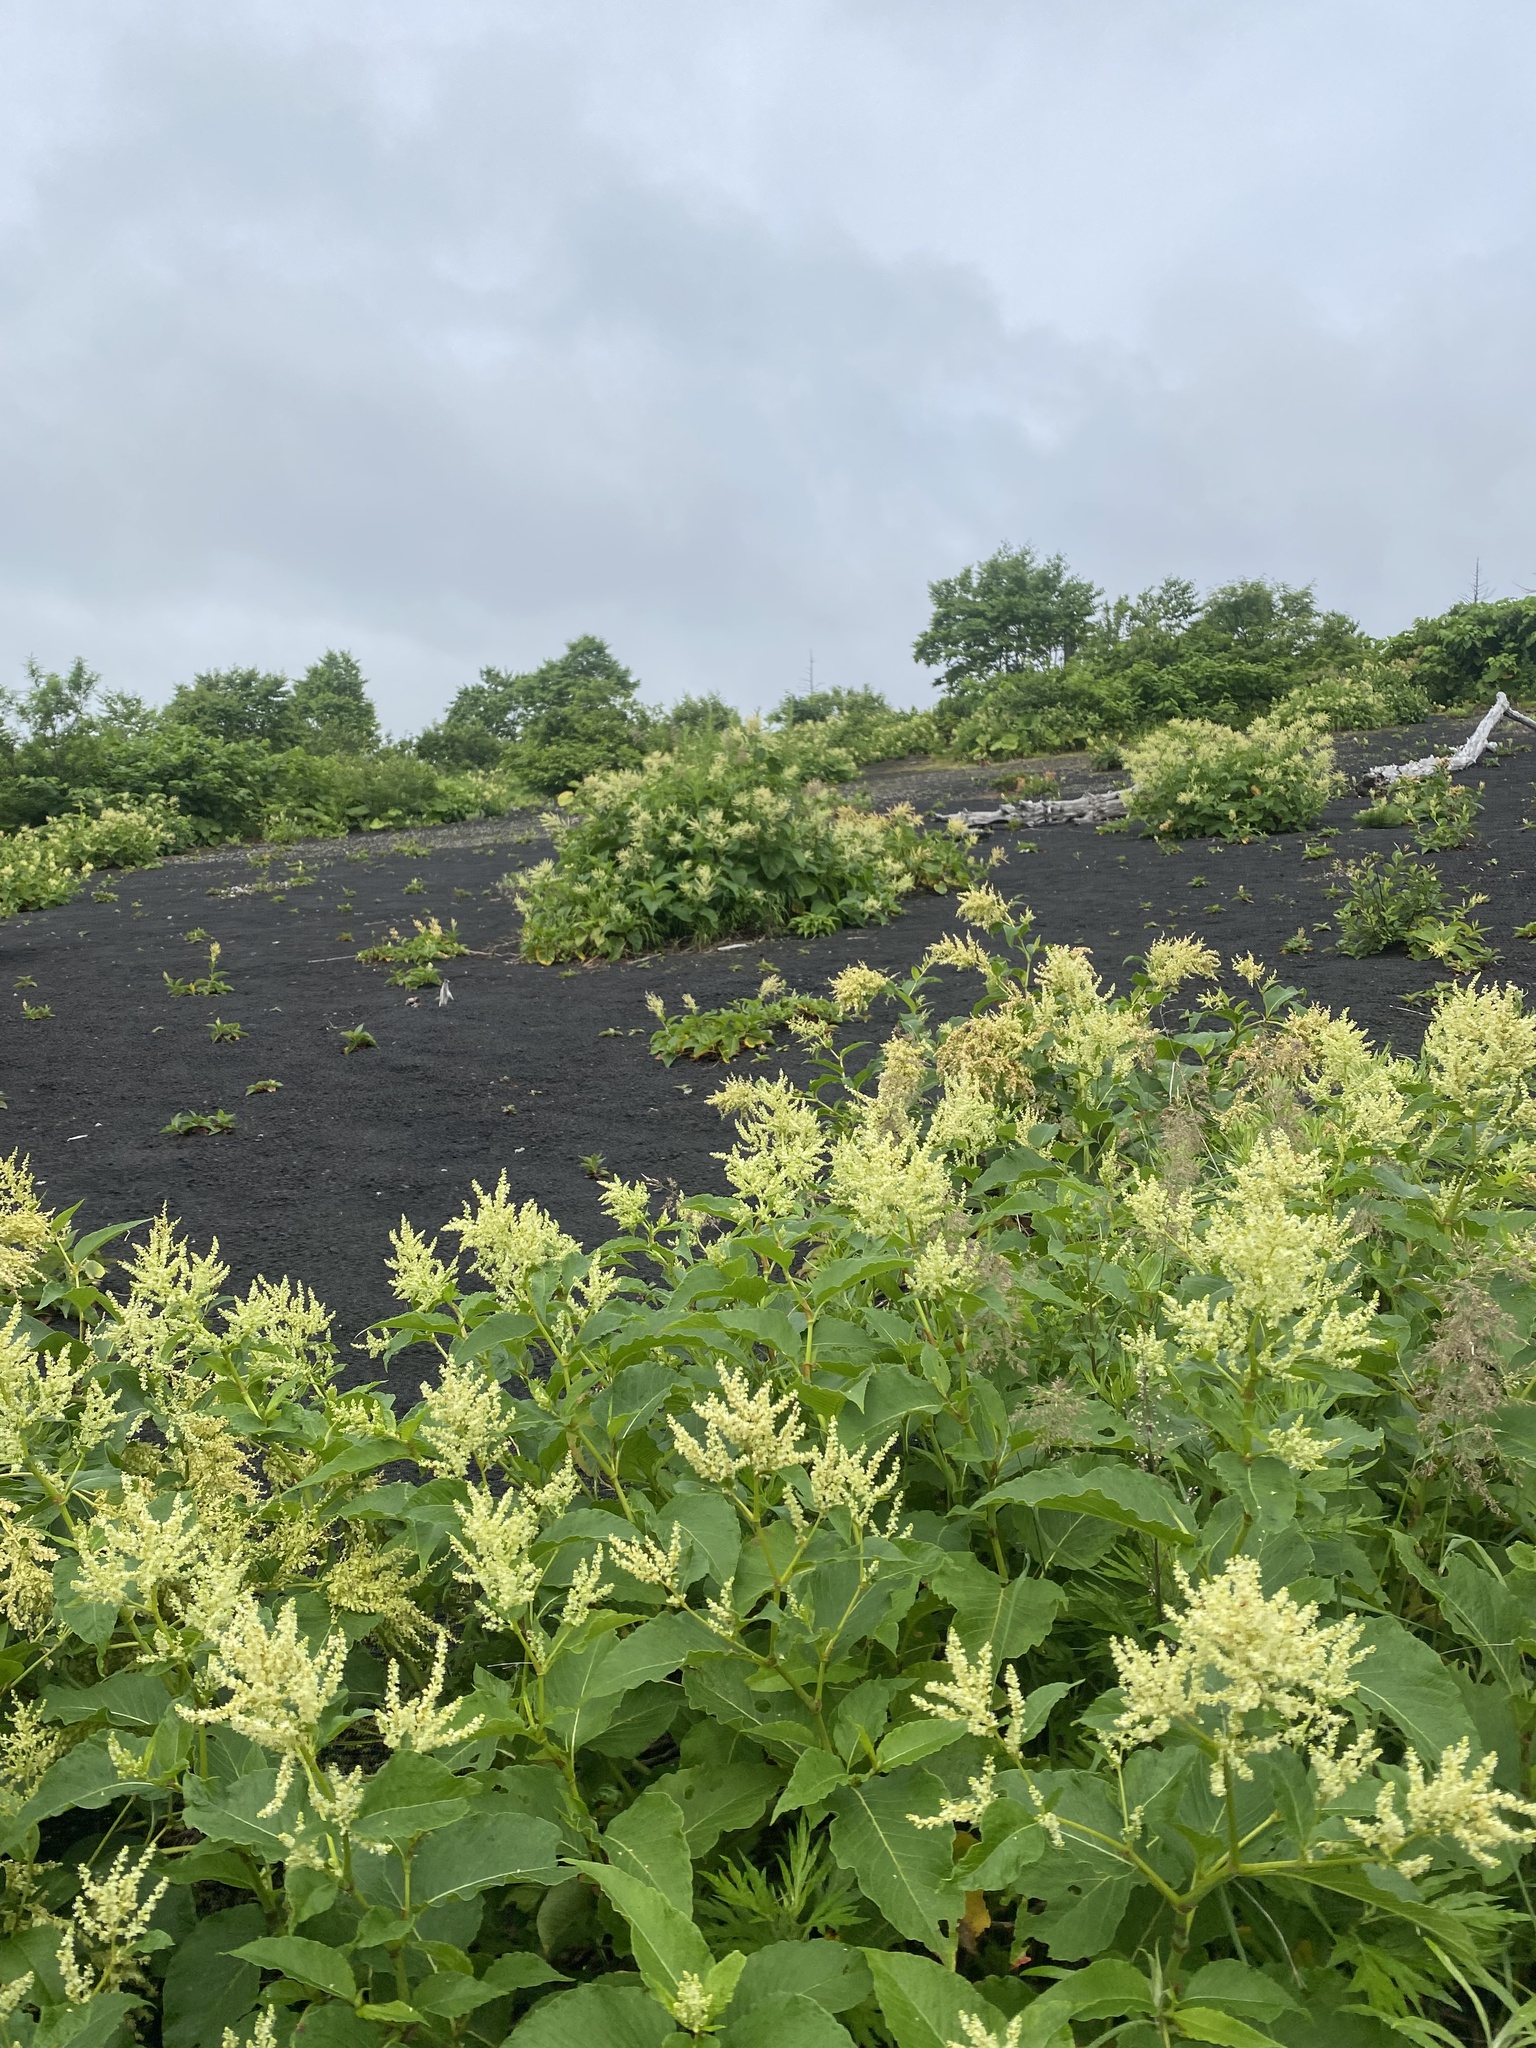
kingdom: Plantae
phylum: Tracheophyta
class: Magnoliopsida
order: Caryophyllales
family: Polygonaceae
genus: Koenigia
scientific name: Koenigia weyrichii
